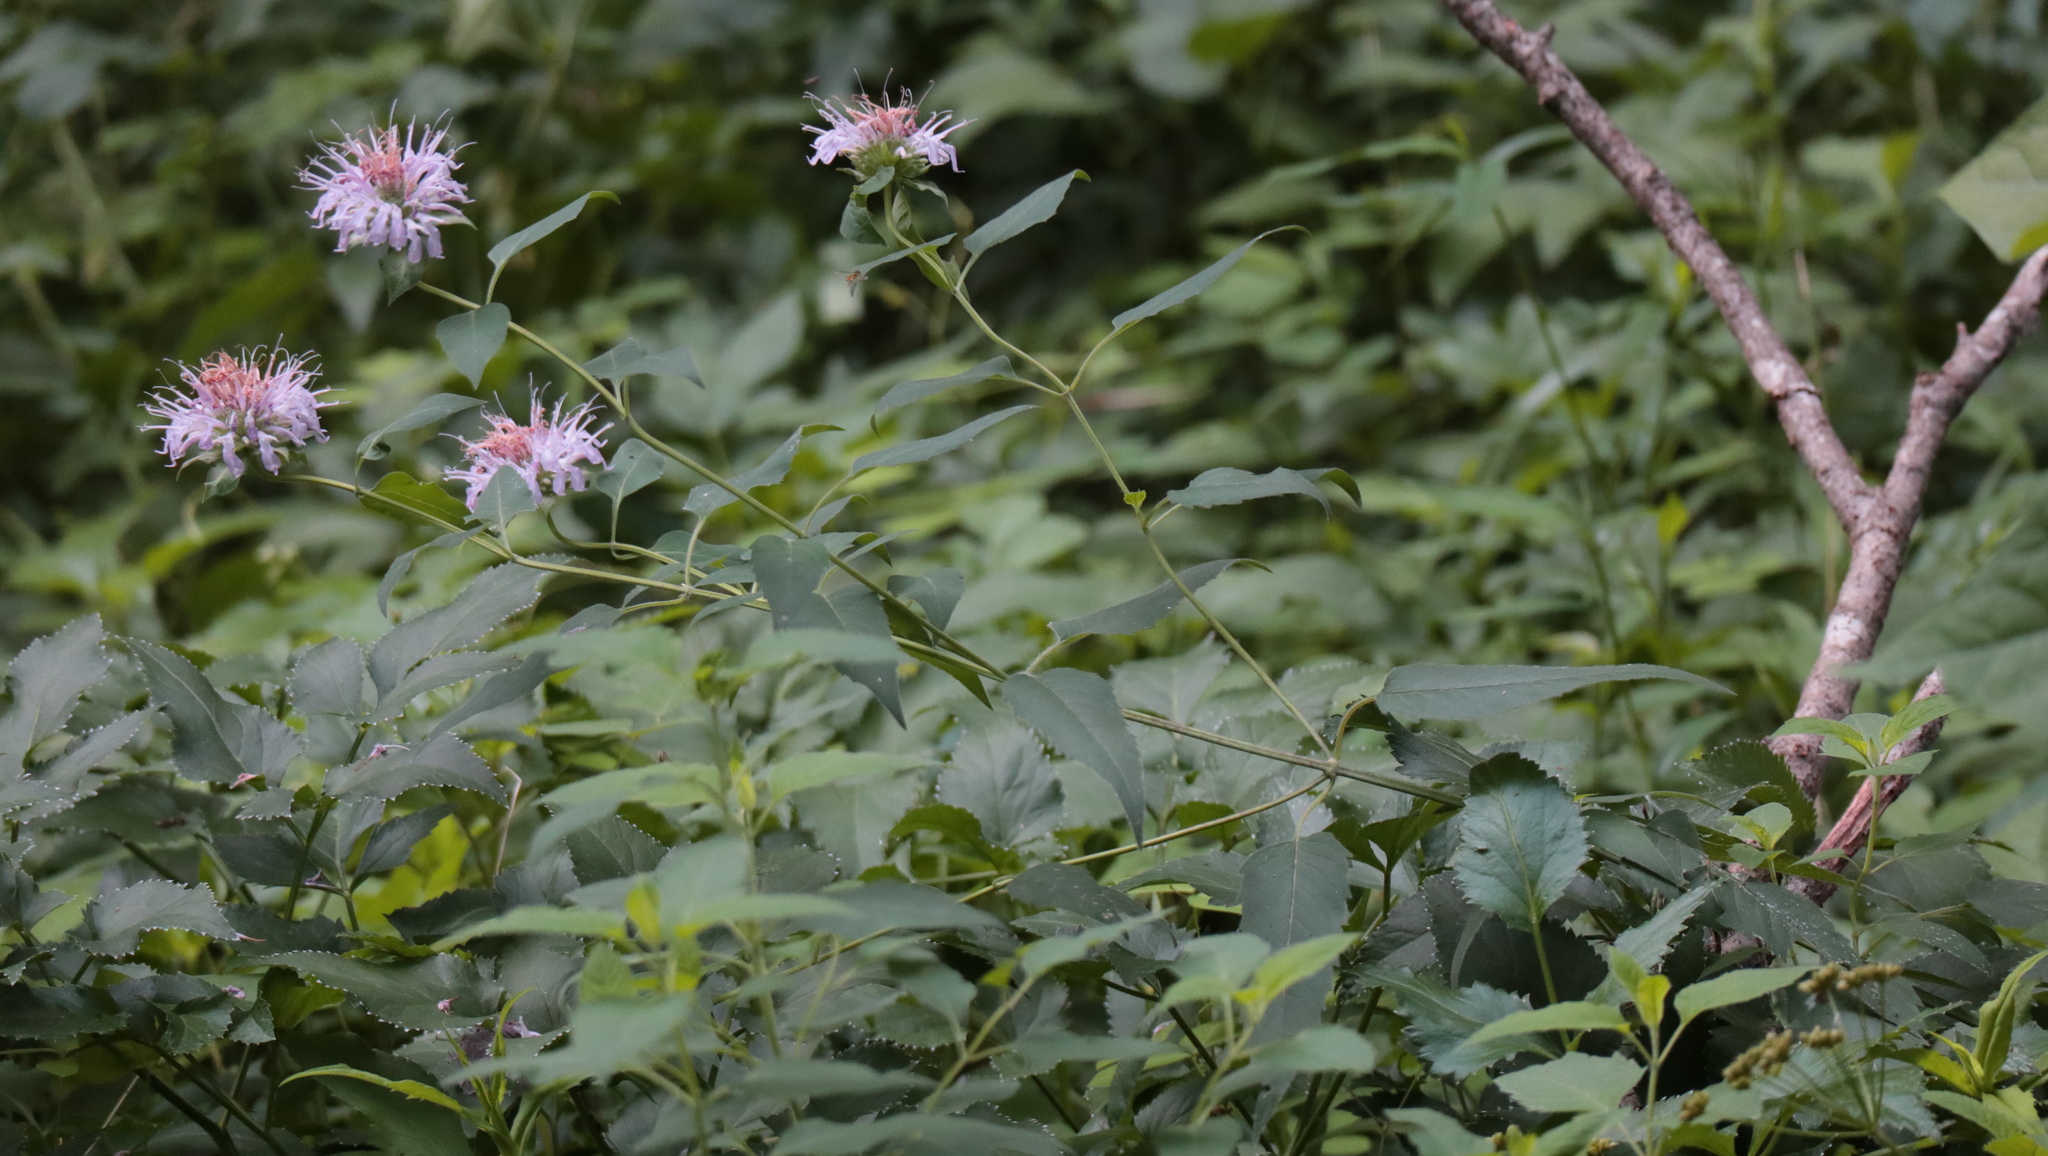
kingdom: Plantae
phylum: Tracheophyta
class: Magnoliopsida
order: Lamiales
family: Lamiaceae
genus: Monarda
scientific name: Monarda fistulosa
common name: Purple beebalm
